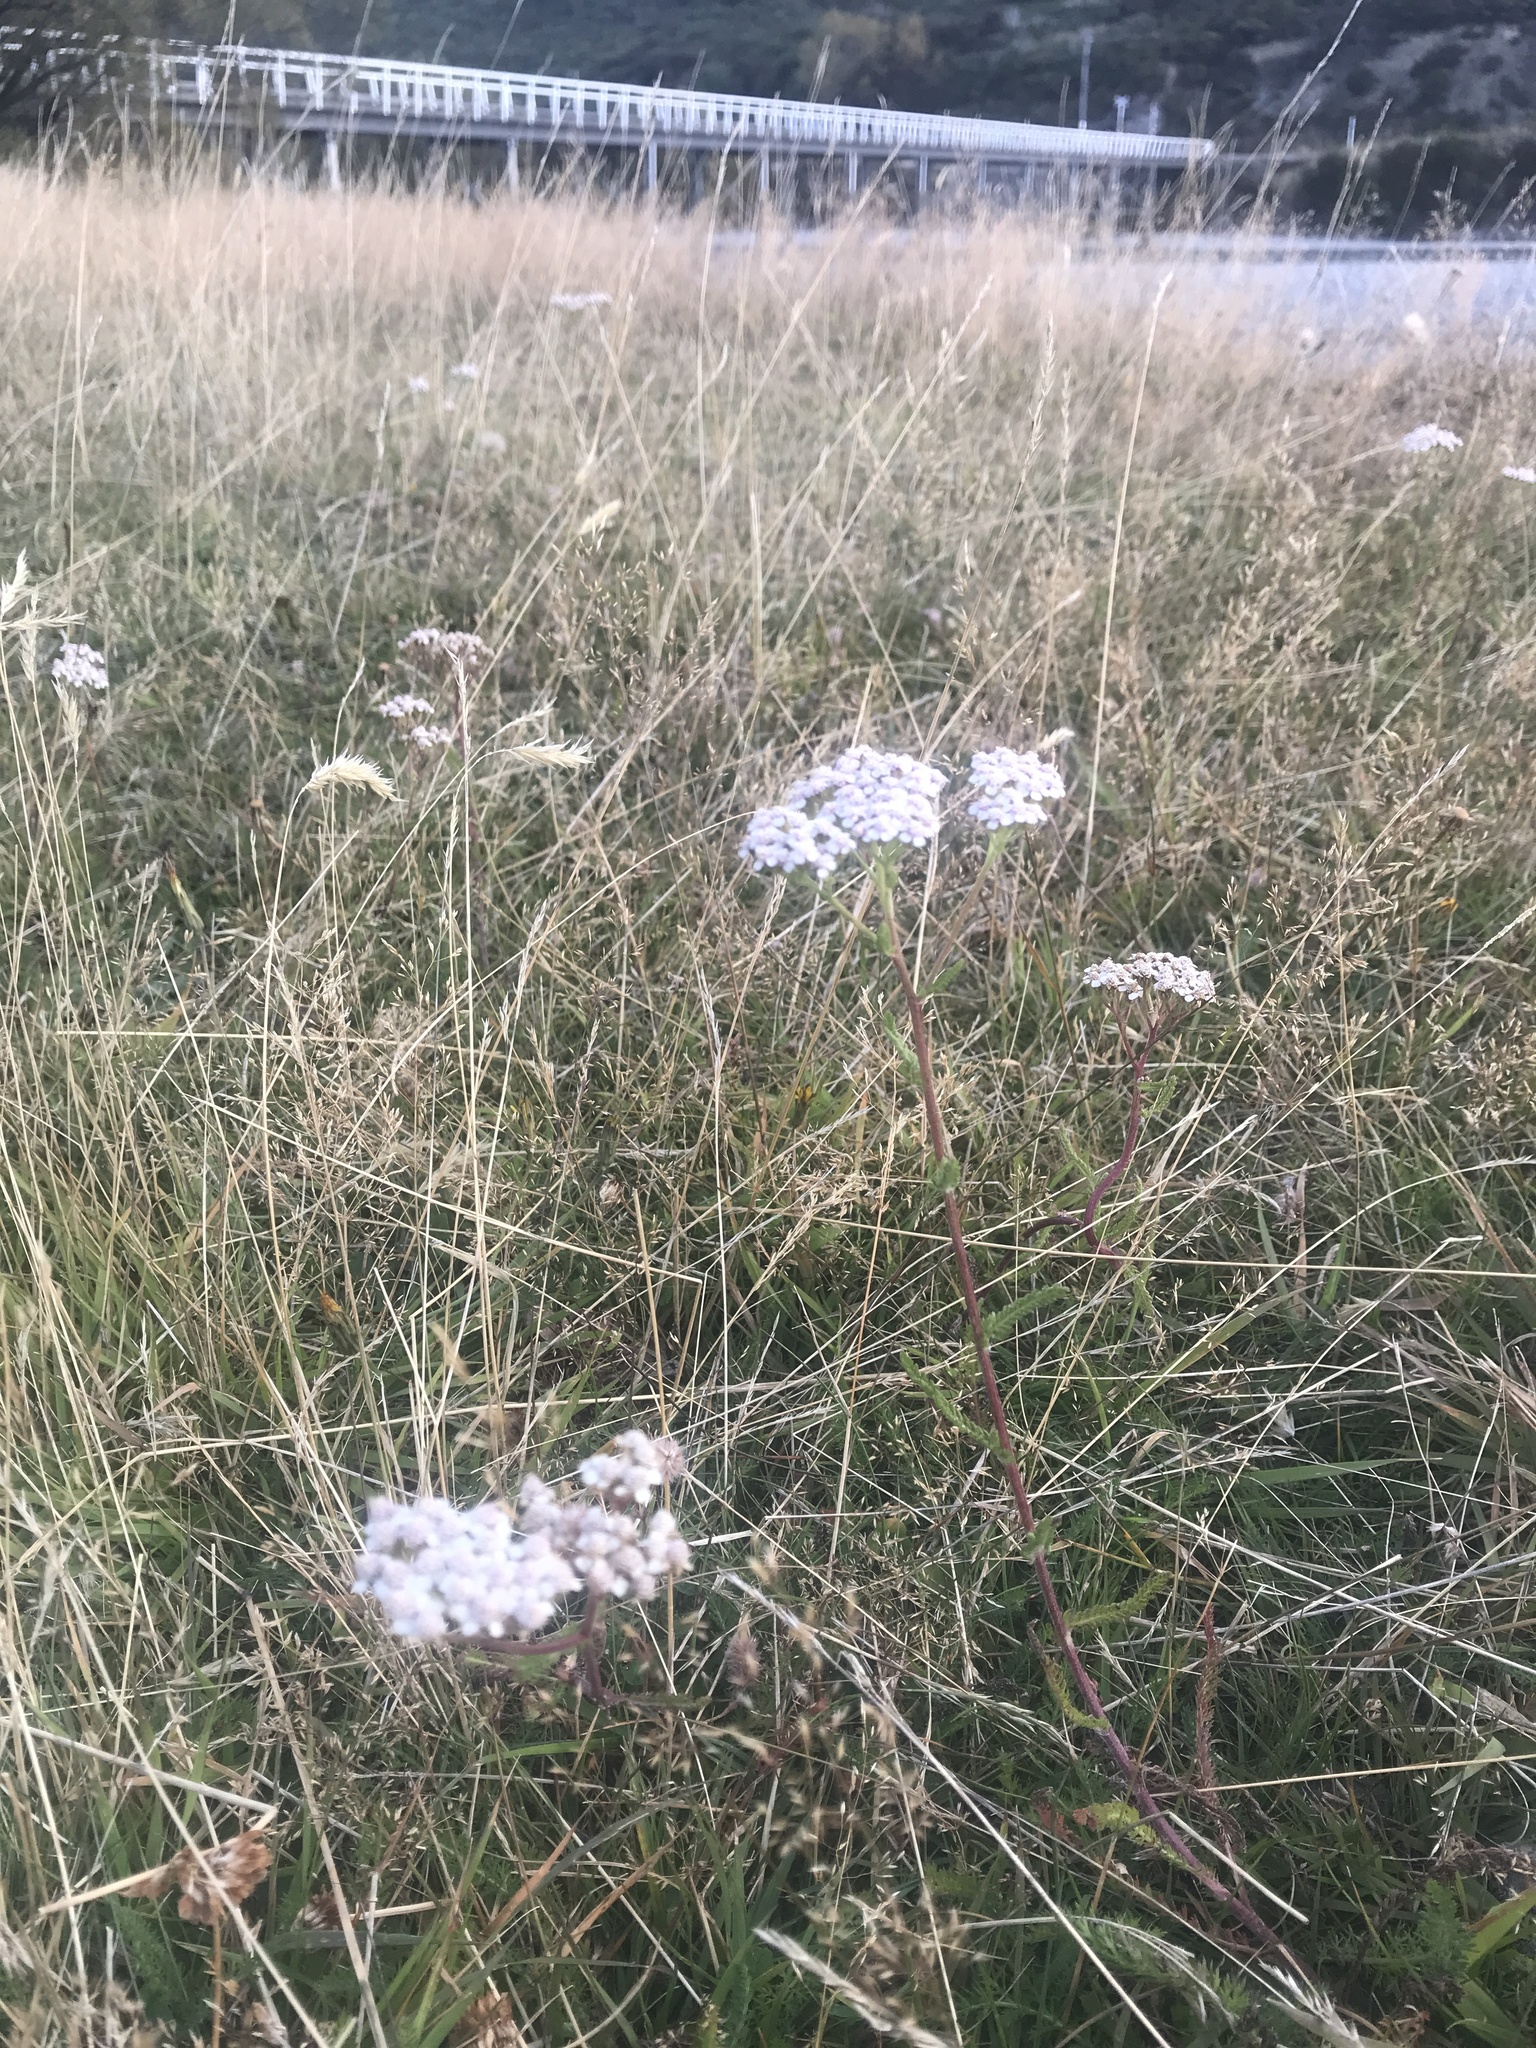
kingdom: Plantae
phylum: Tracheophyta
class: Magnoliopsida
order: Asterales
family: Asteraceae
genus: Achillea
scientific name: Achillea millefolium
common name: Yarrow
